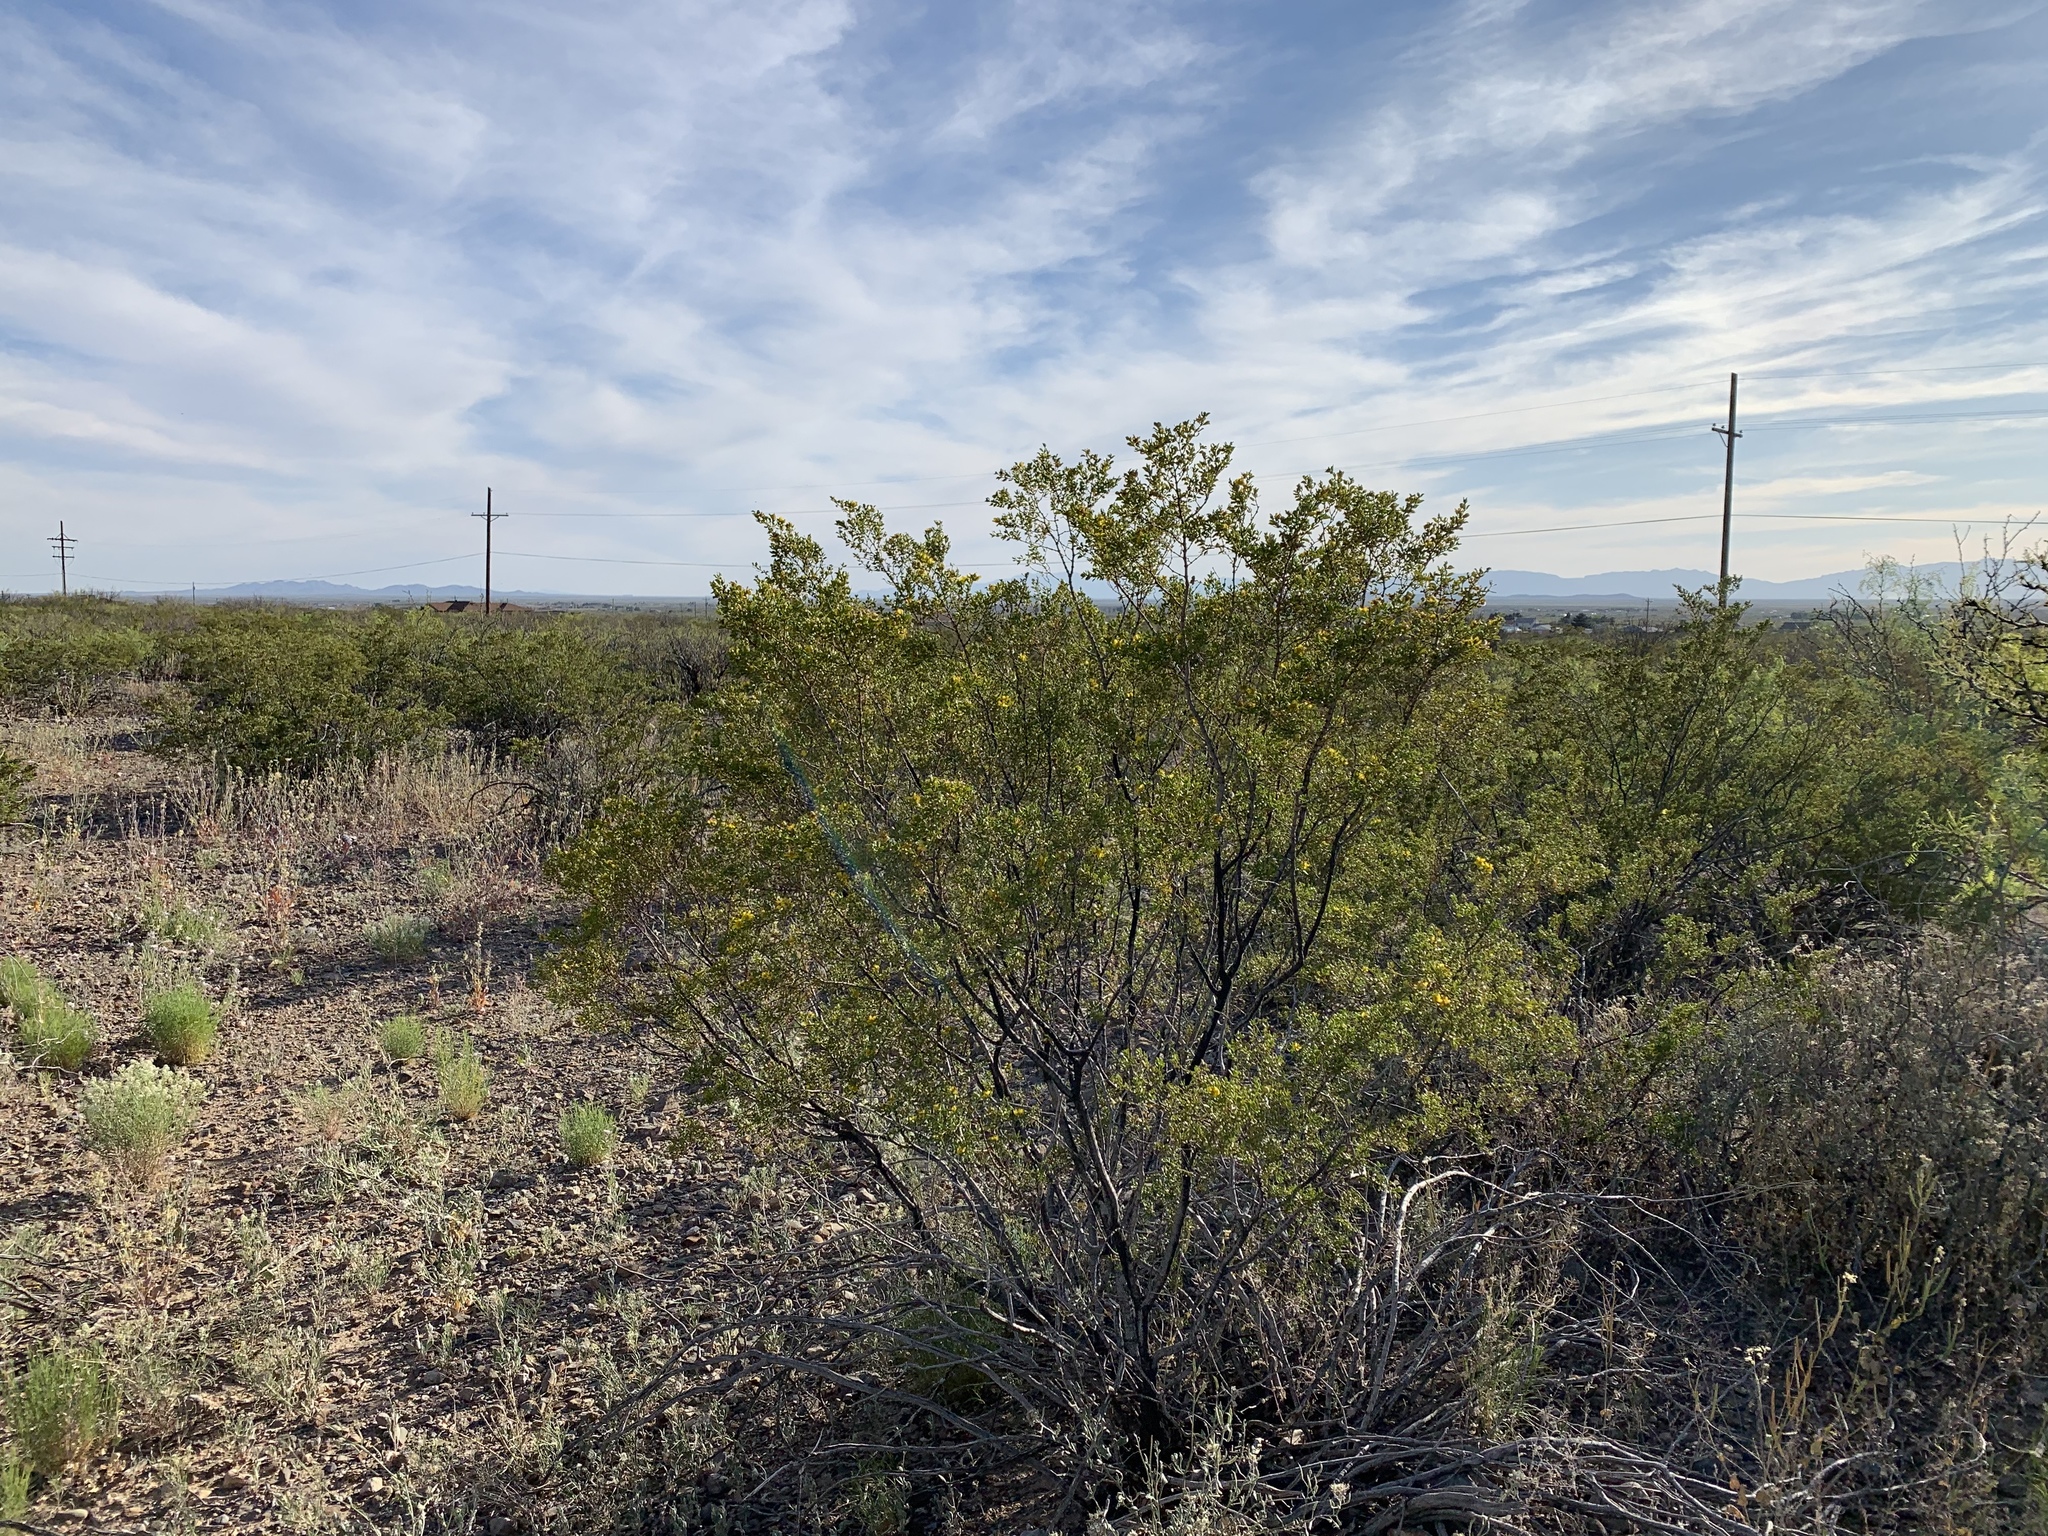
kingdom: Plantae
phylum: Tracheophyta
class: Magnoliopsida
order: Zygophyllales
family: Zygophyllaceae
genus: Larrea
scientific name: Larrea tridentata
